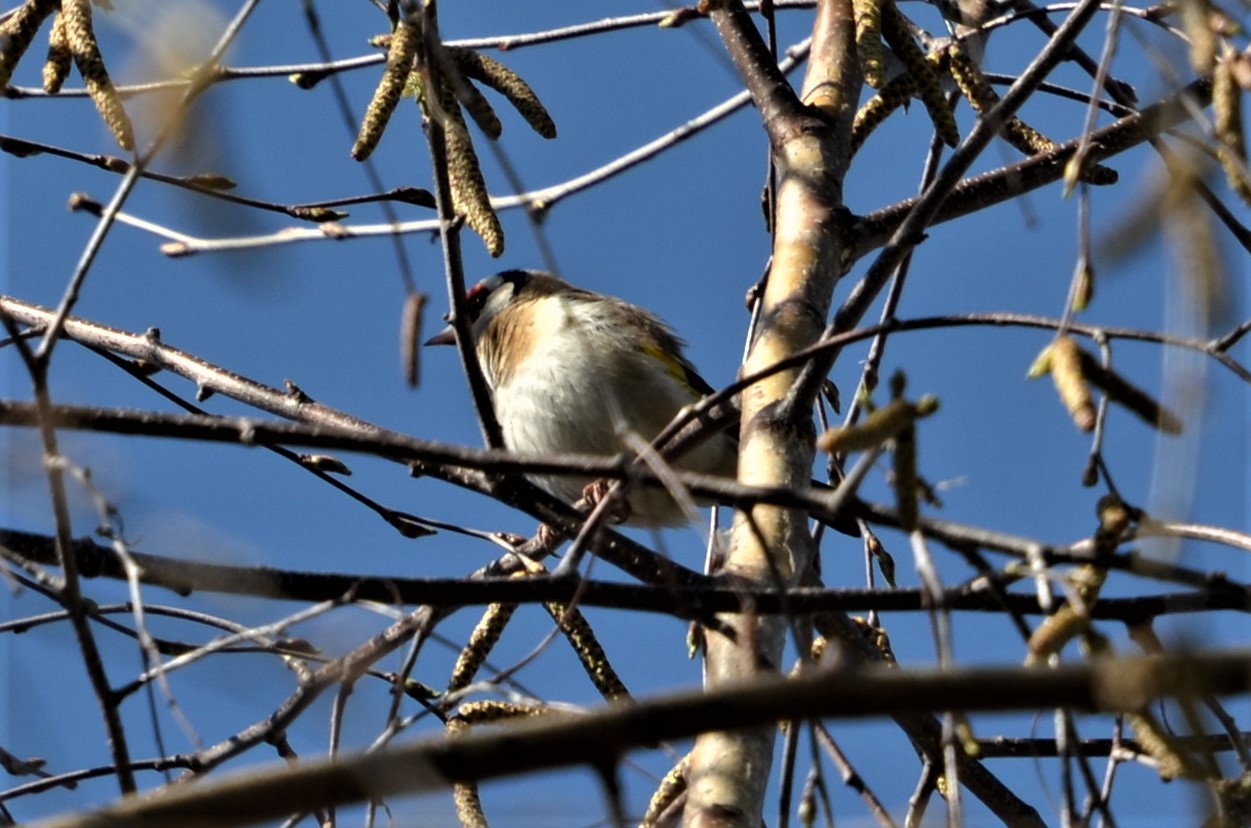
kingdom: Animalia
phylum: Chordata
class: Aves
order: Passeriformes
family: Fringillidae
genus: Carduelis
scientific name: Carduelis carduelis
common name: European goldfinch
